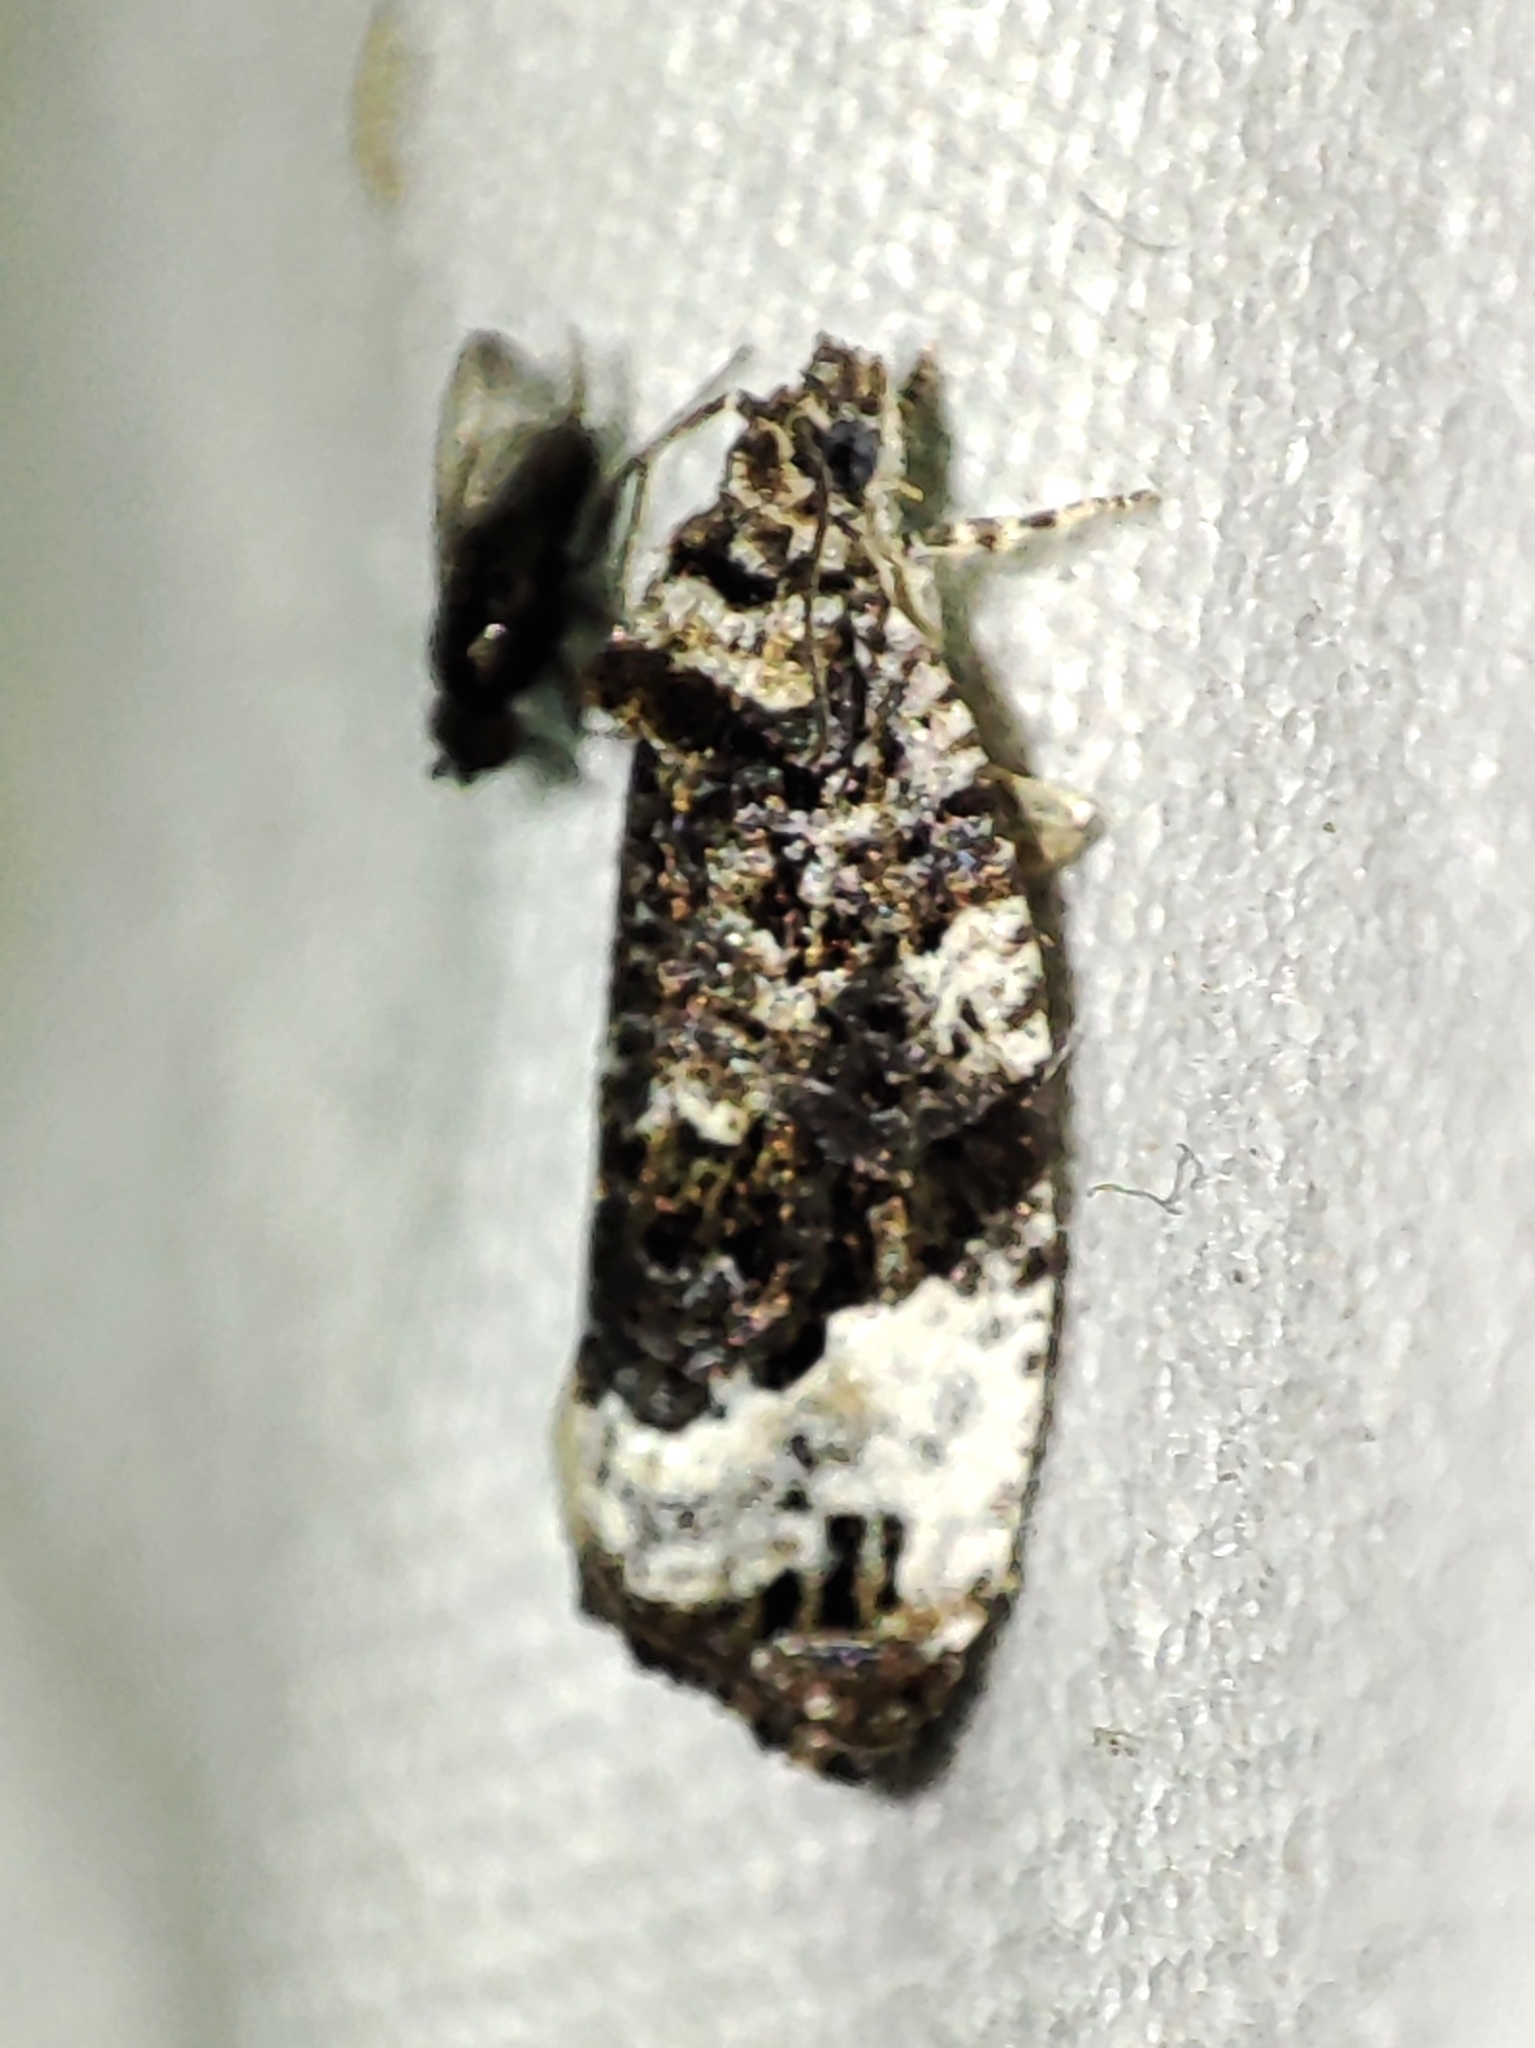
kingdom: Animalia
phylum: Arthropoda
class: Insecta
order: Lepidoptera
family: Tortricidae
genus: Apotomis
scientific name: Apotomis sororculana
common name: Narrow-winged marble
